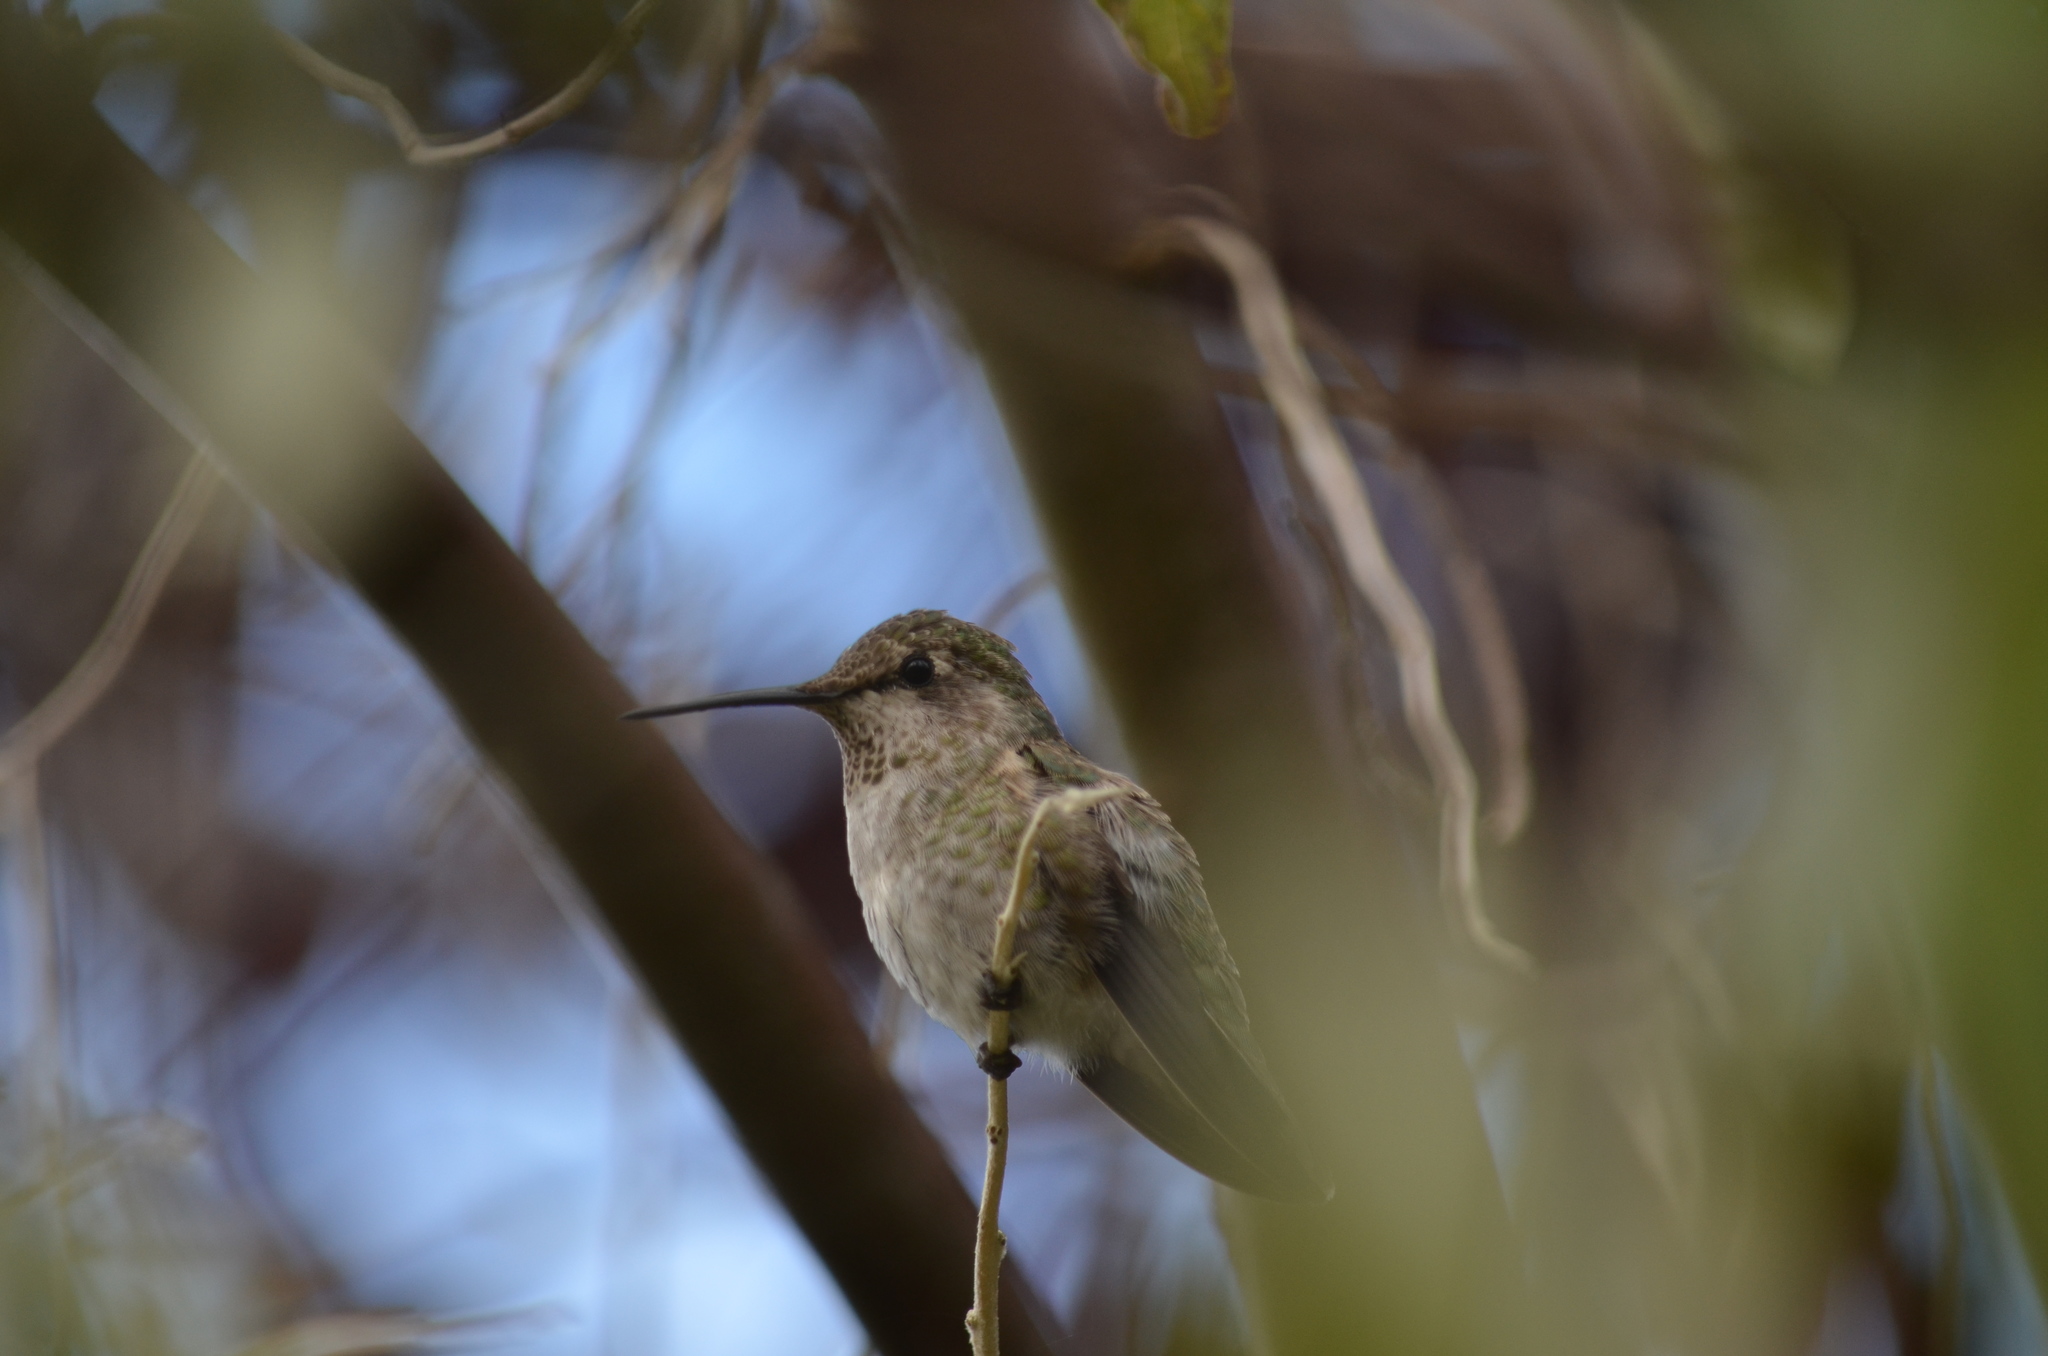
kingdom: Animalia
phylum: Chordata
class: Aves
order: Apodiformes
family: Trochilidae
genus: Calypte
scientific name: Calypte anna
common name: Anna's hummingbird
